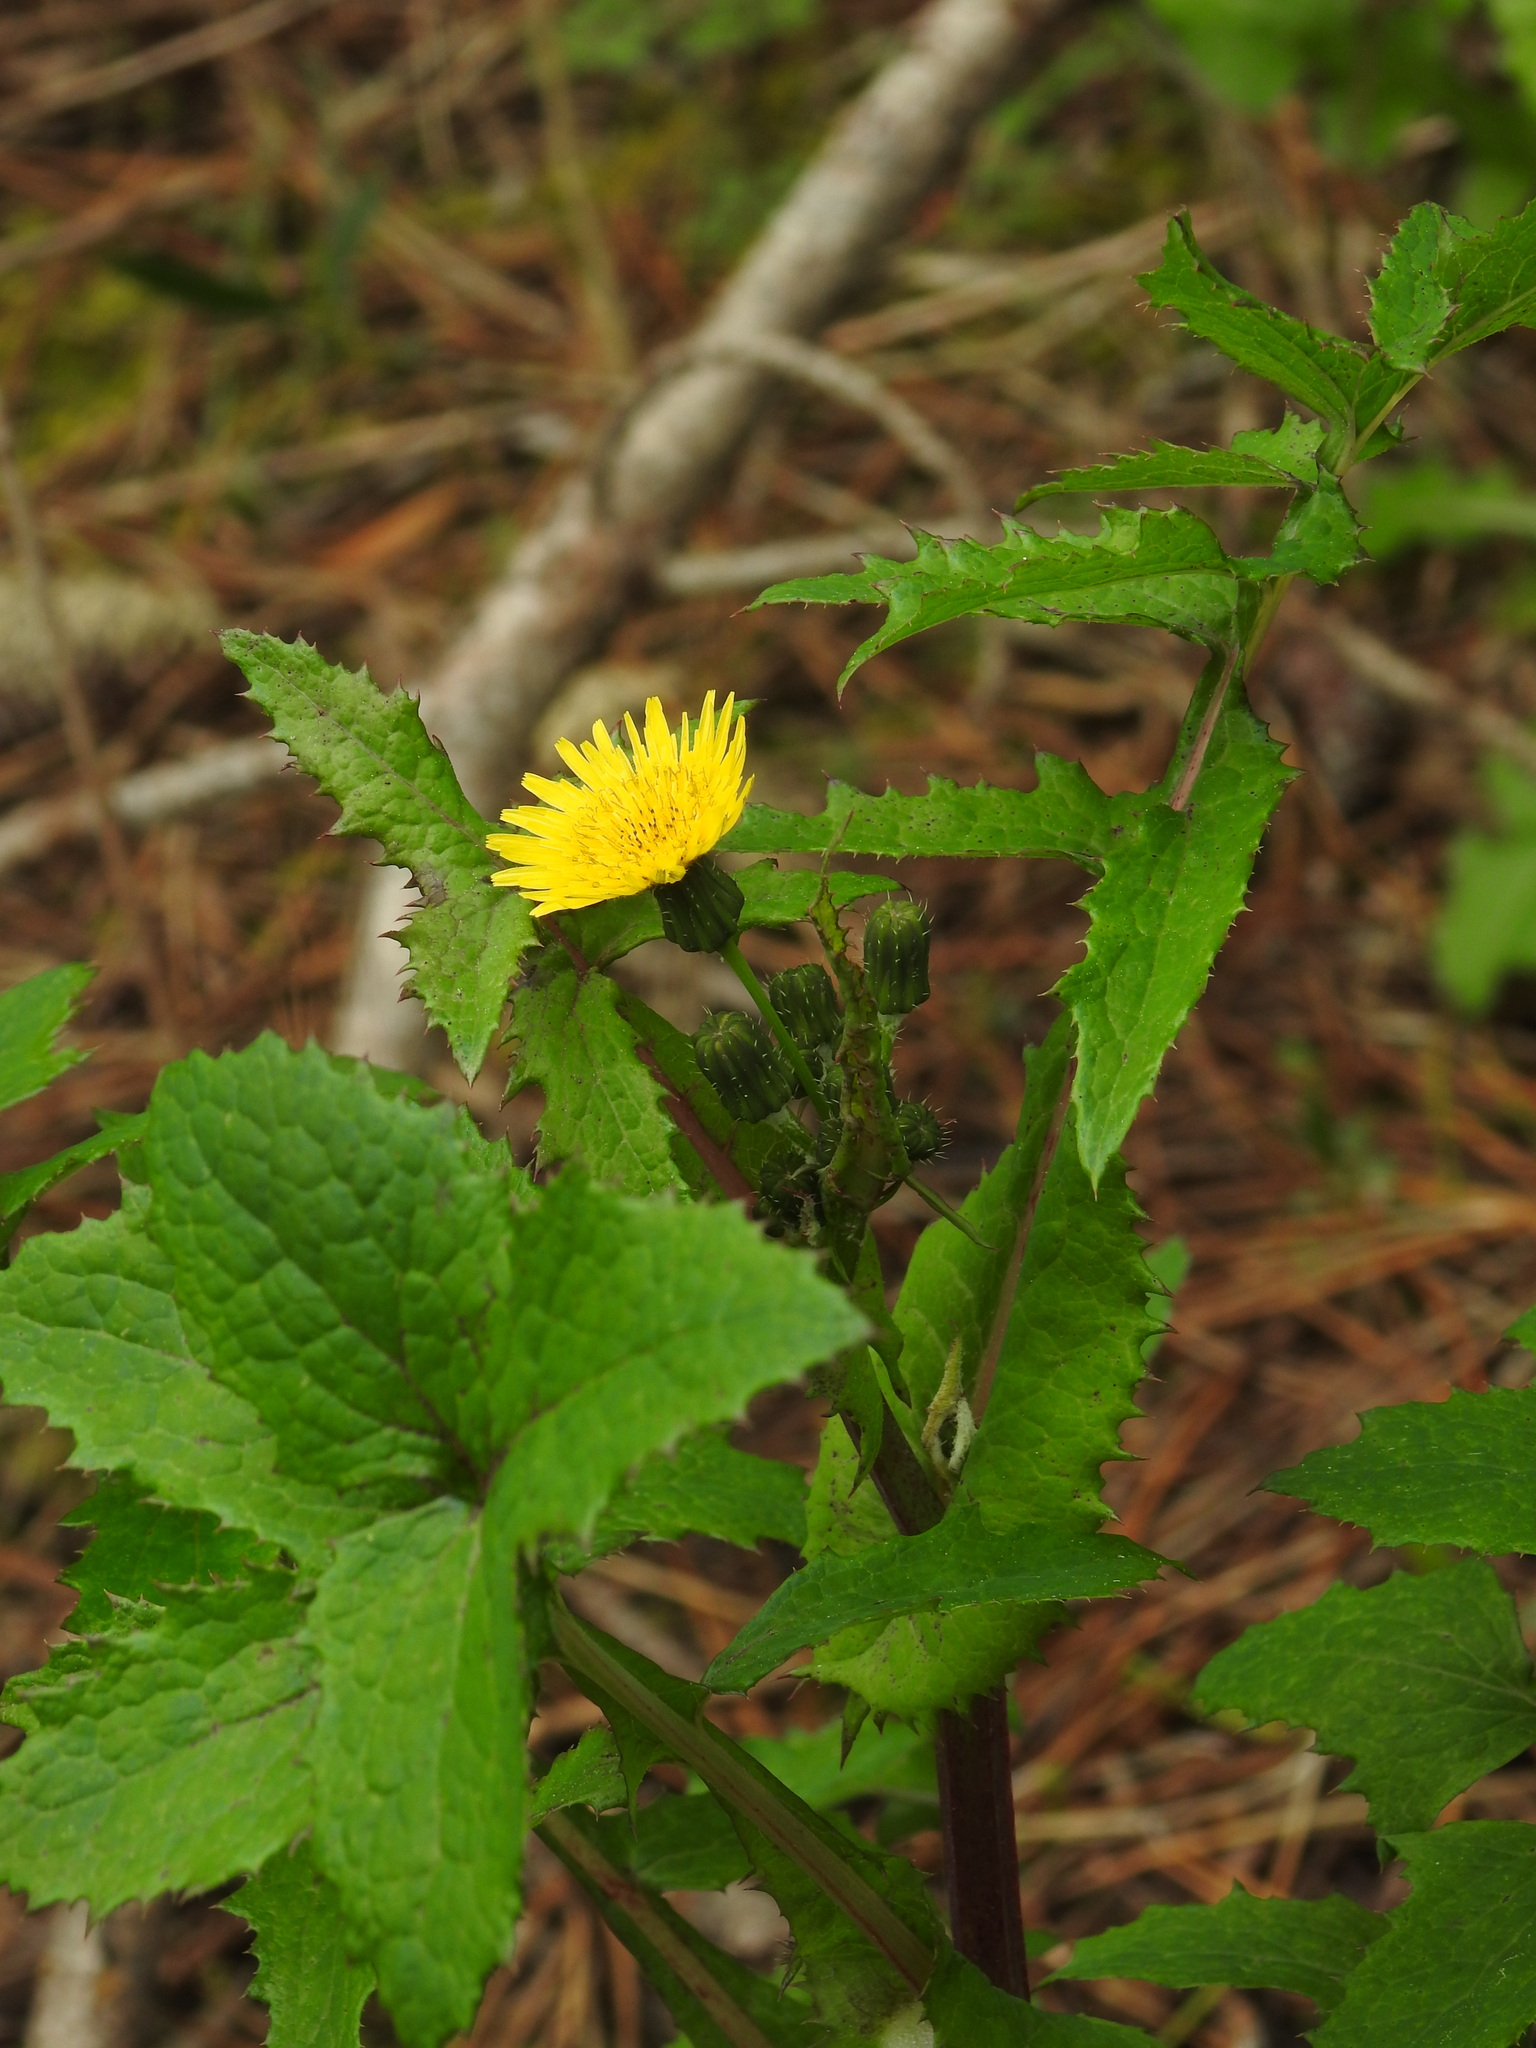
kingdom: Plantae
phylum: Tracheophyta
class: Magnoliopsida
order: Asterales
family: Asteraceae
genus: Sonchus
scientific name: Sonchus oleraceus
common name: Common sowthistle
